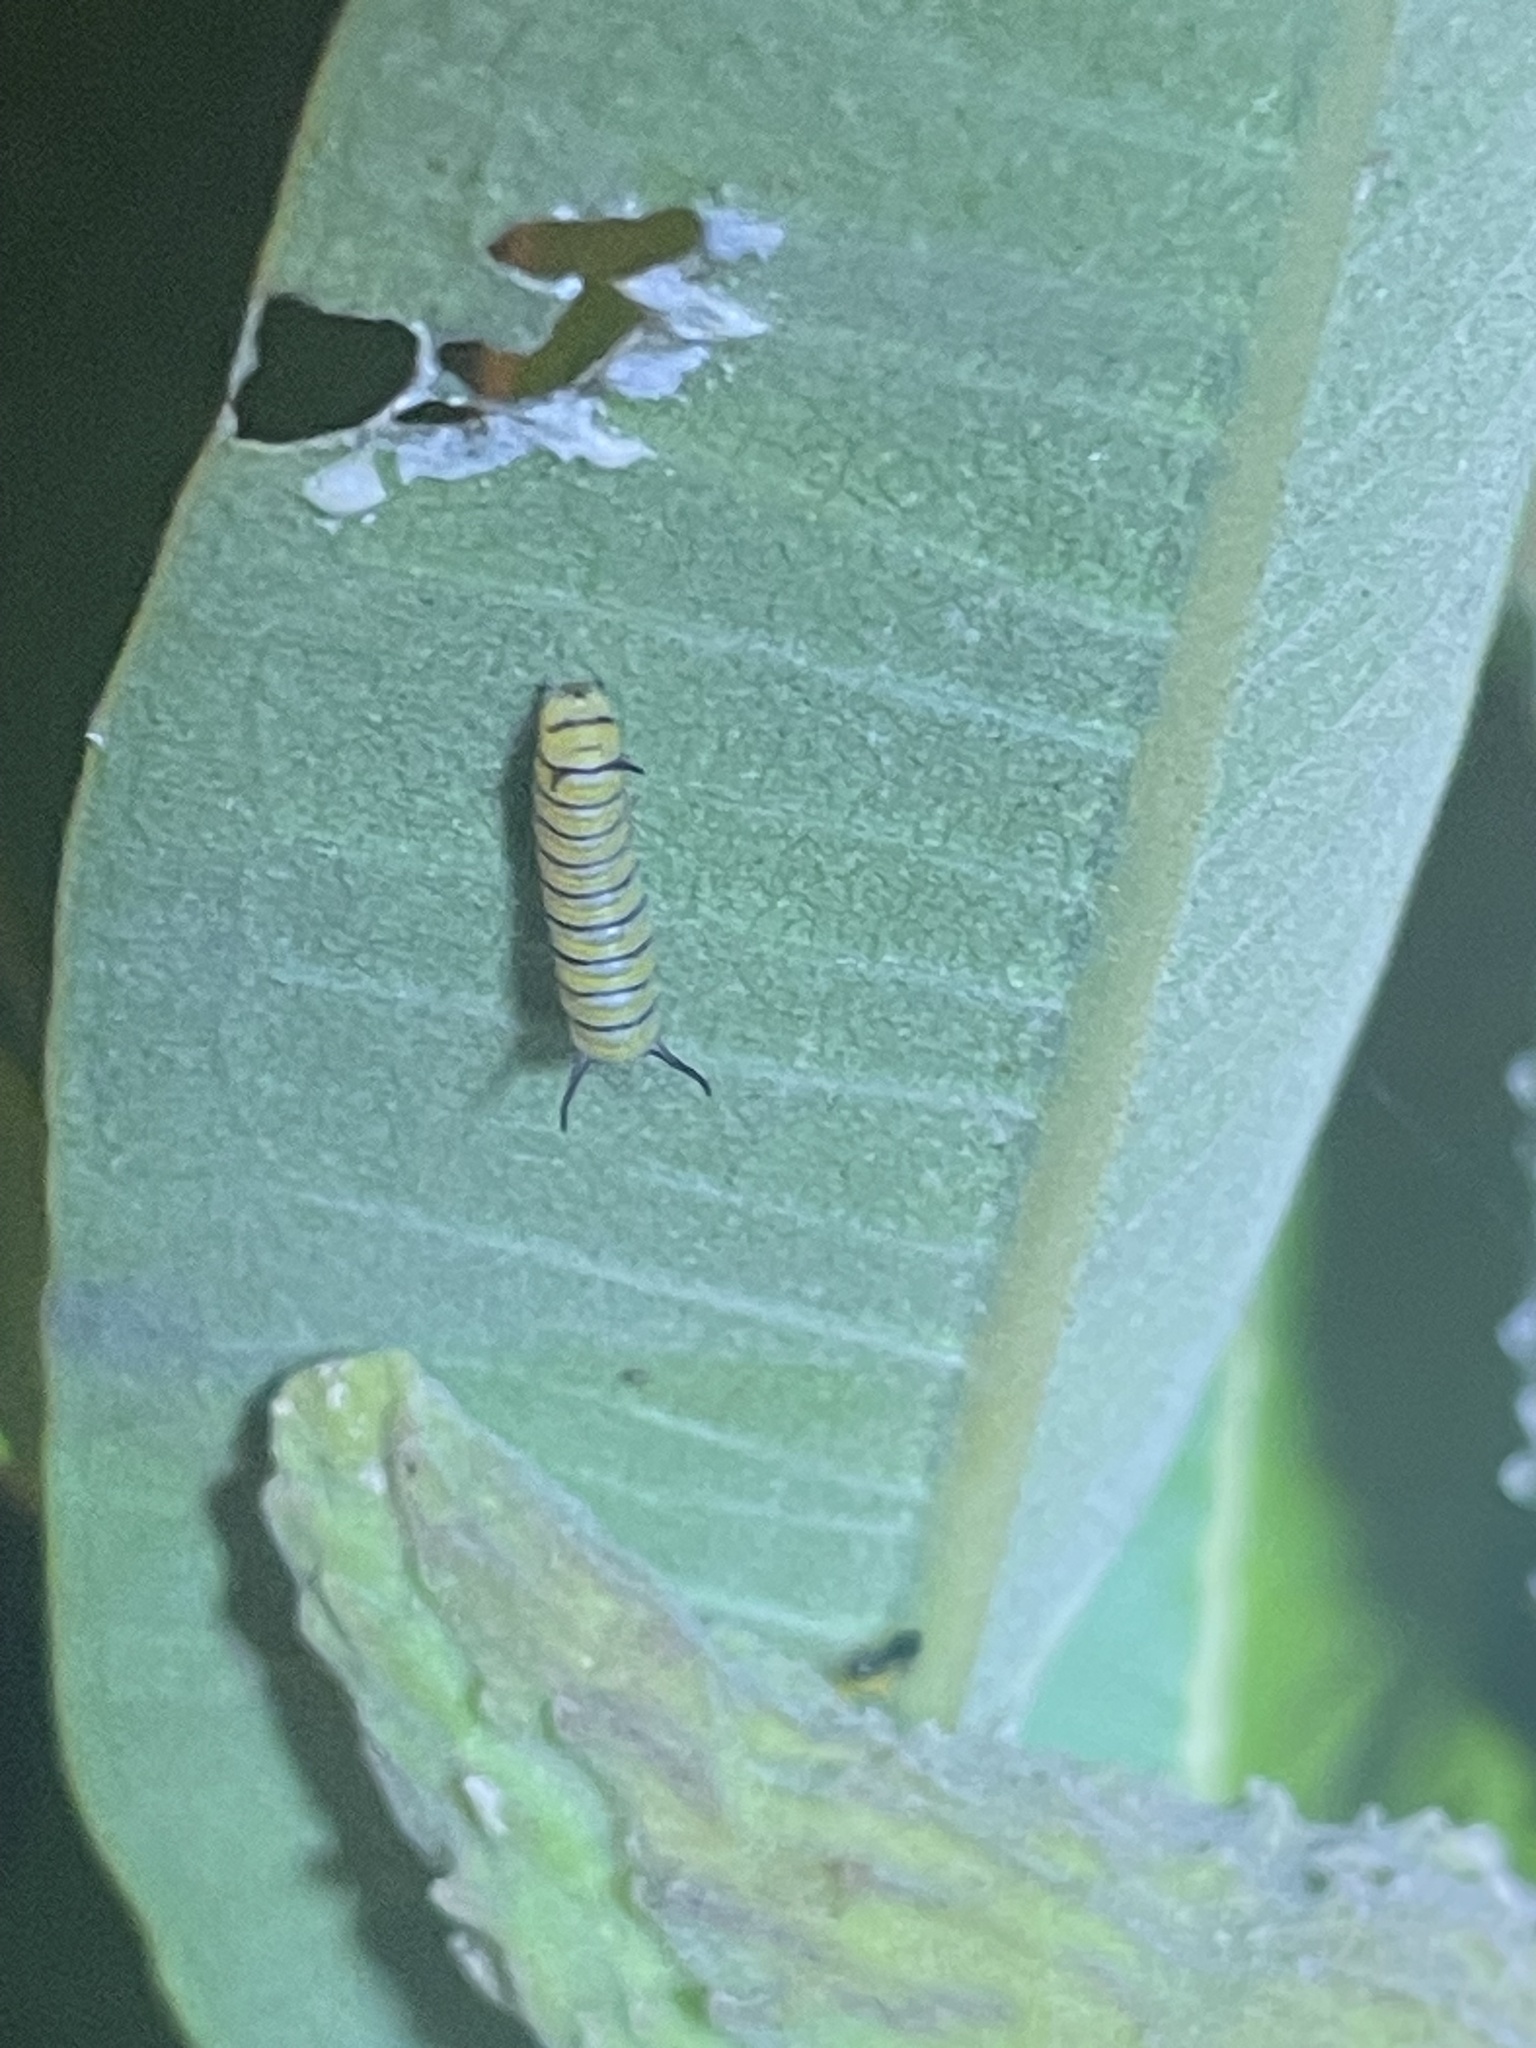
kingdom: Animalia
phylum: Arthropoda
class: Insecta
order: Lepidoptera
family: Nymphalidae
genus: Danaus
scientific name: Danaus plexippus
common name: Monarch
